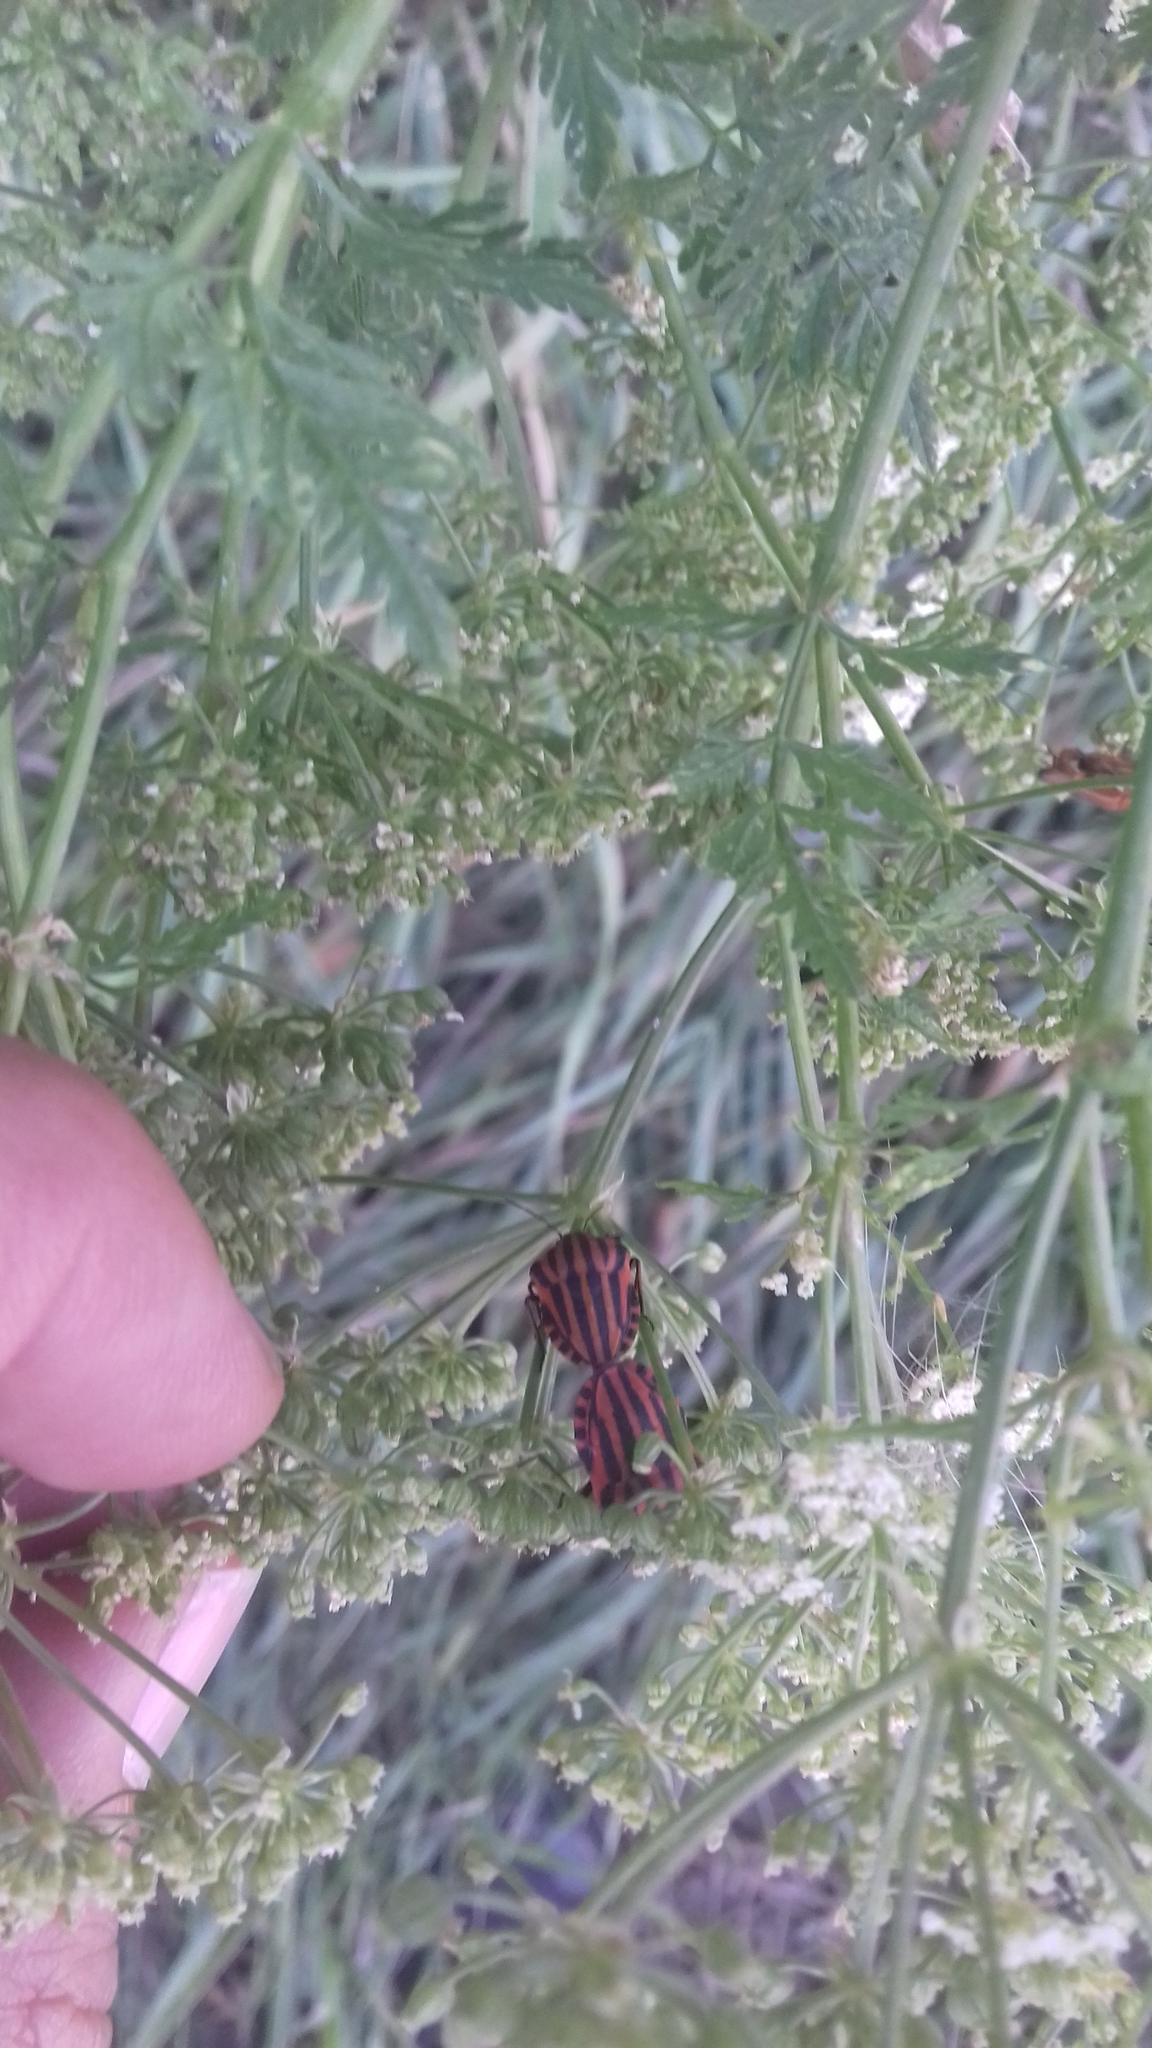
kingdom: Animalia
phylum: Arthropoda
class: Insecta
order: Hemiptera
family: Pentatomidae
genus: Graphosoma
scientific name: Graphosoma italicum
